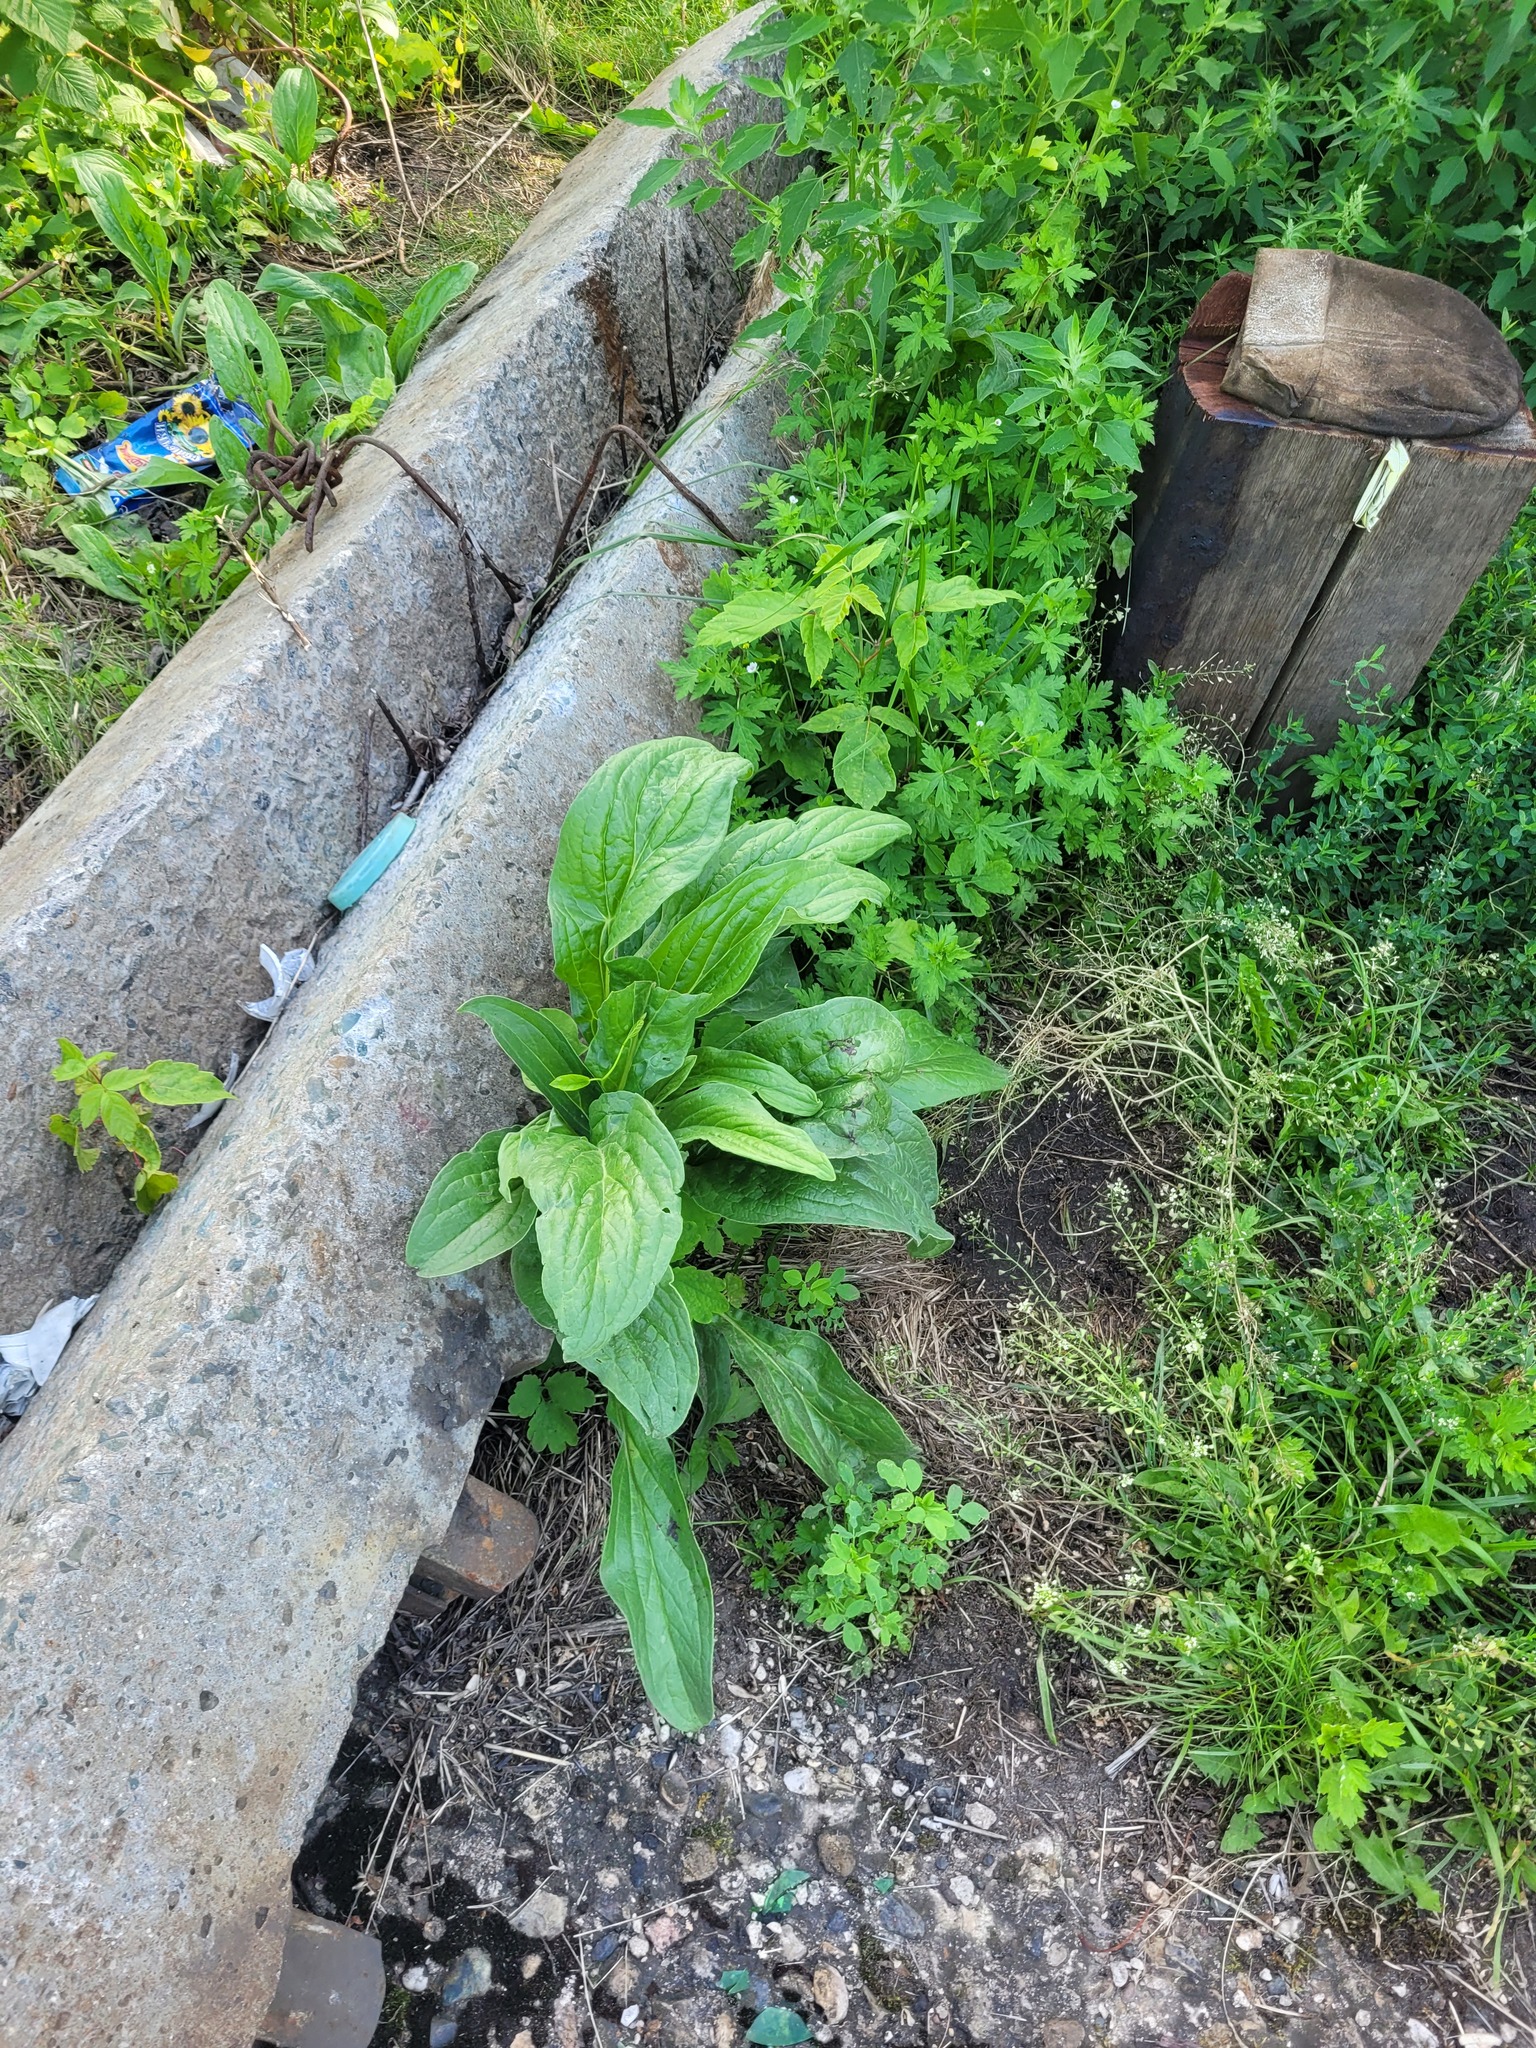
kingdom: Plantae
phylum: Tracheophyta
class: Magnoliopsida
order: Boraginales
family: Boraginaceae
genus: Cynoglossum
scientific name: Cynoglossum officinale
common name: Hound's-tongue
